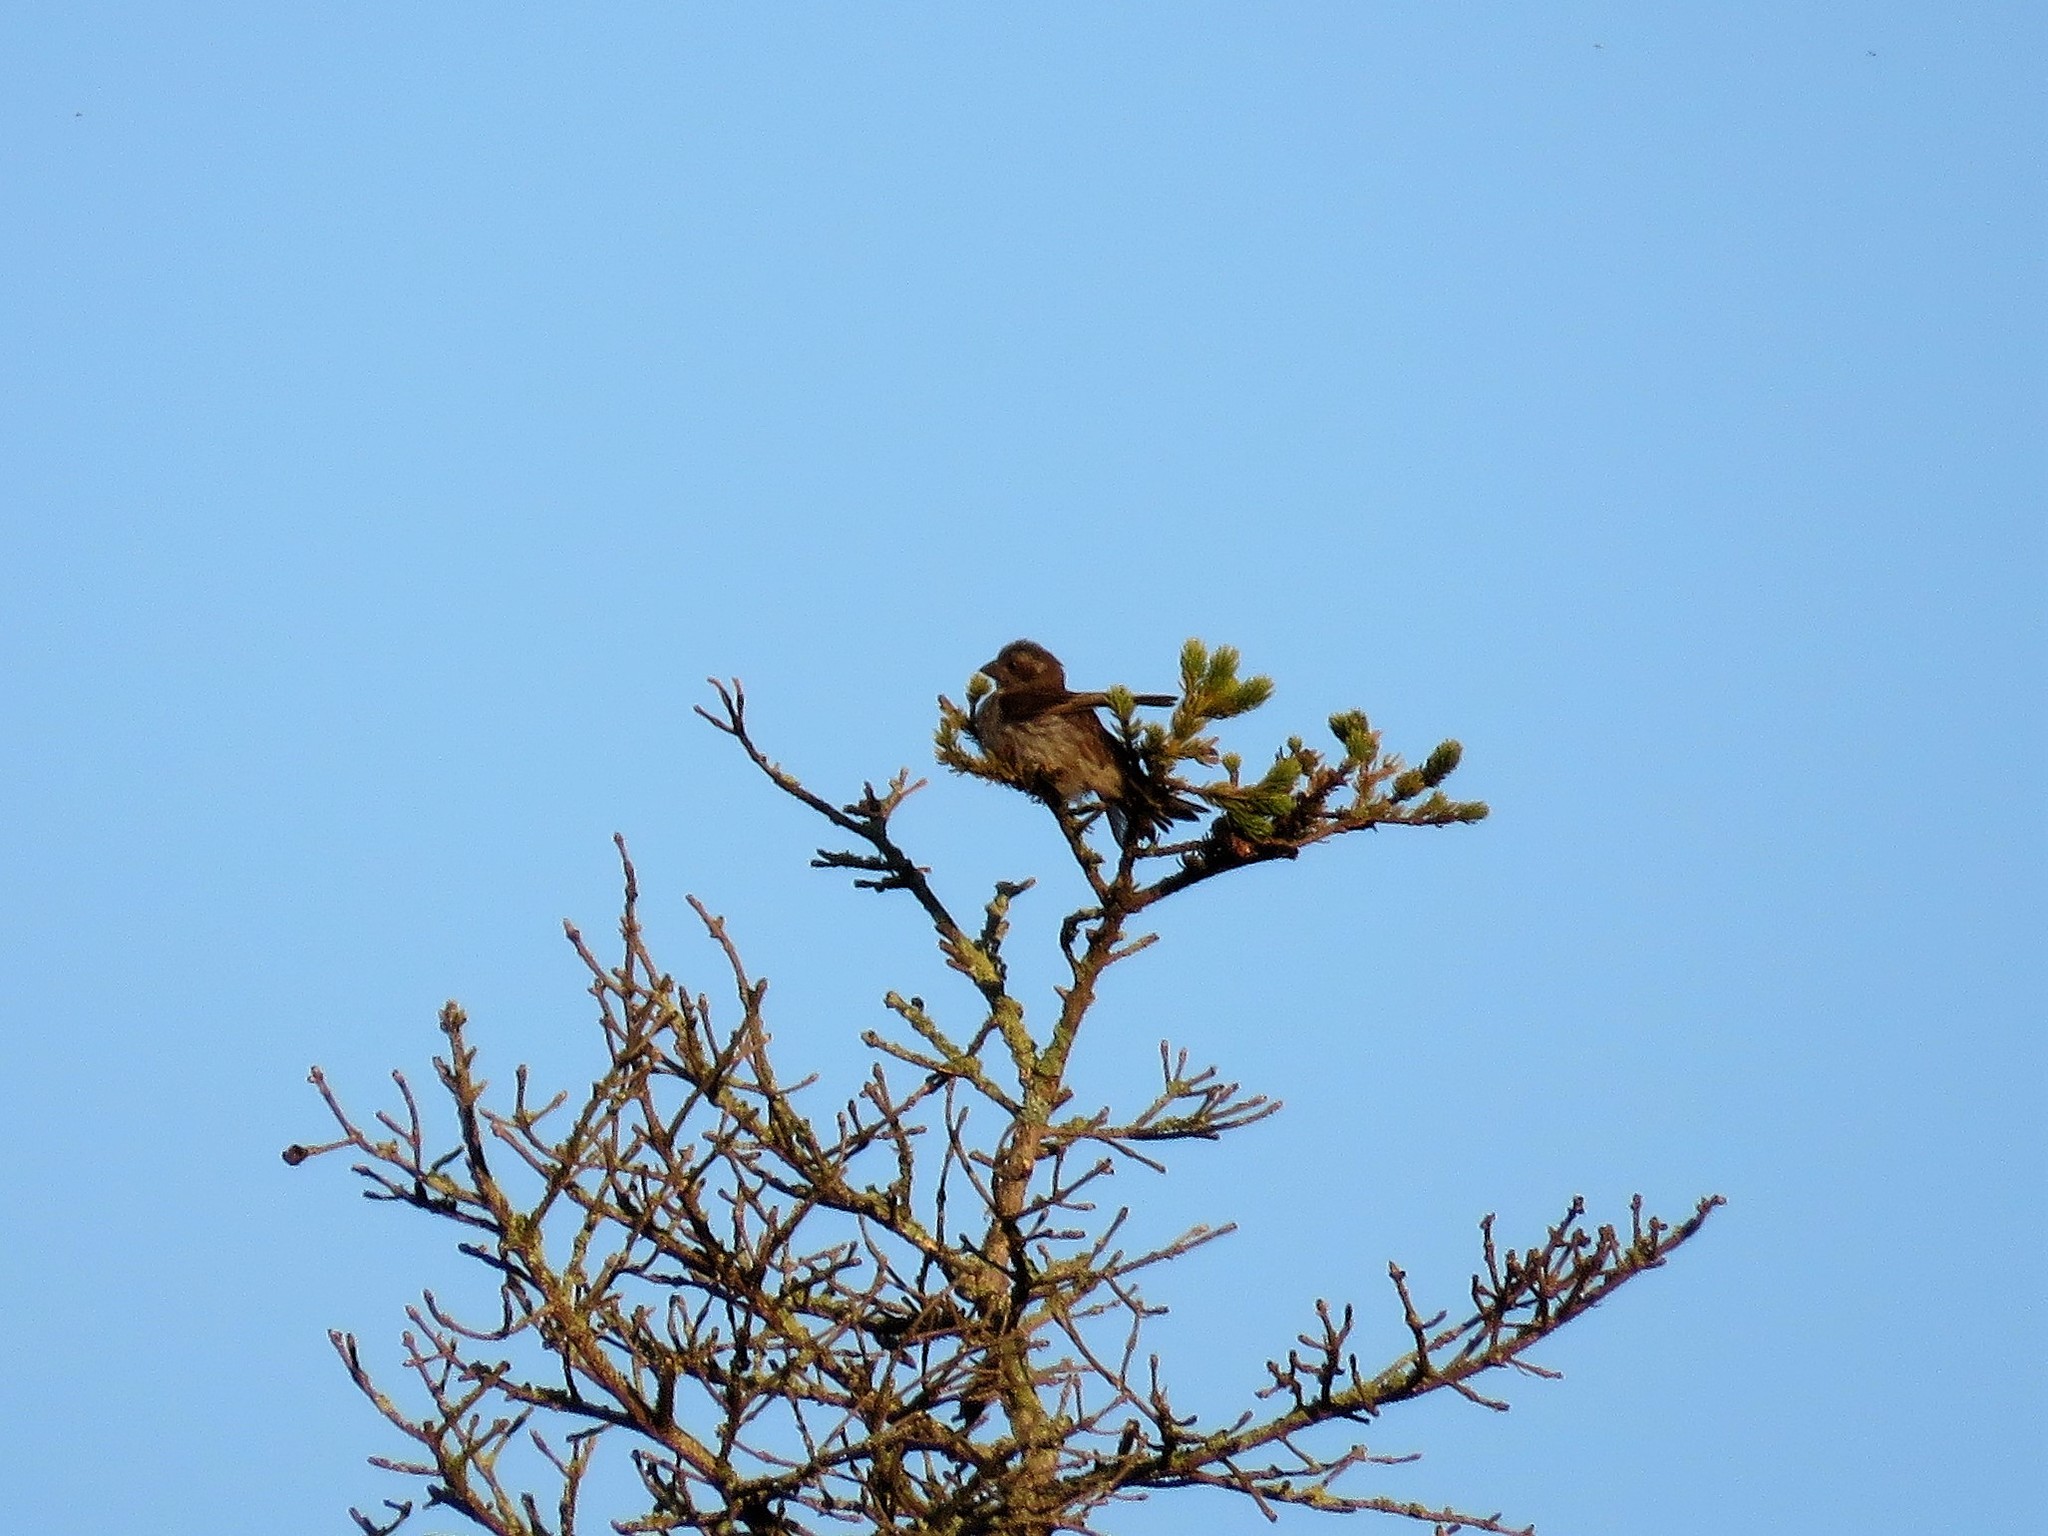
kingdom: Animalia
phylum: Chordata
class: Aves
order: Passeriformes
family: Fringillidae
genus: Haemorhous
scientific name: Haemorhous purpureus
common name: Purple finch
